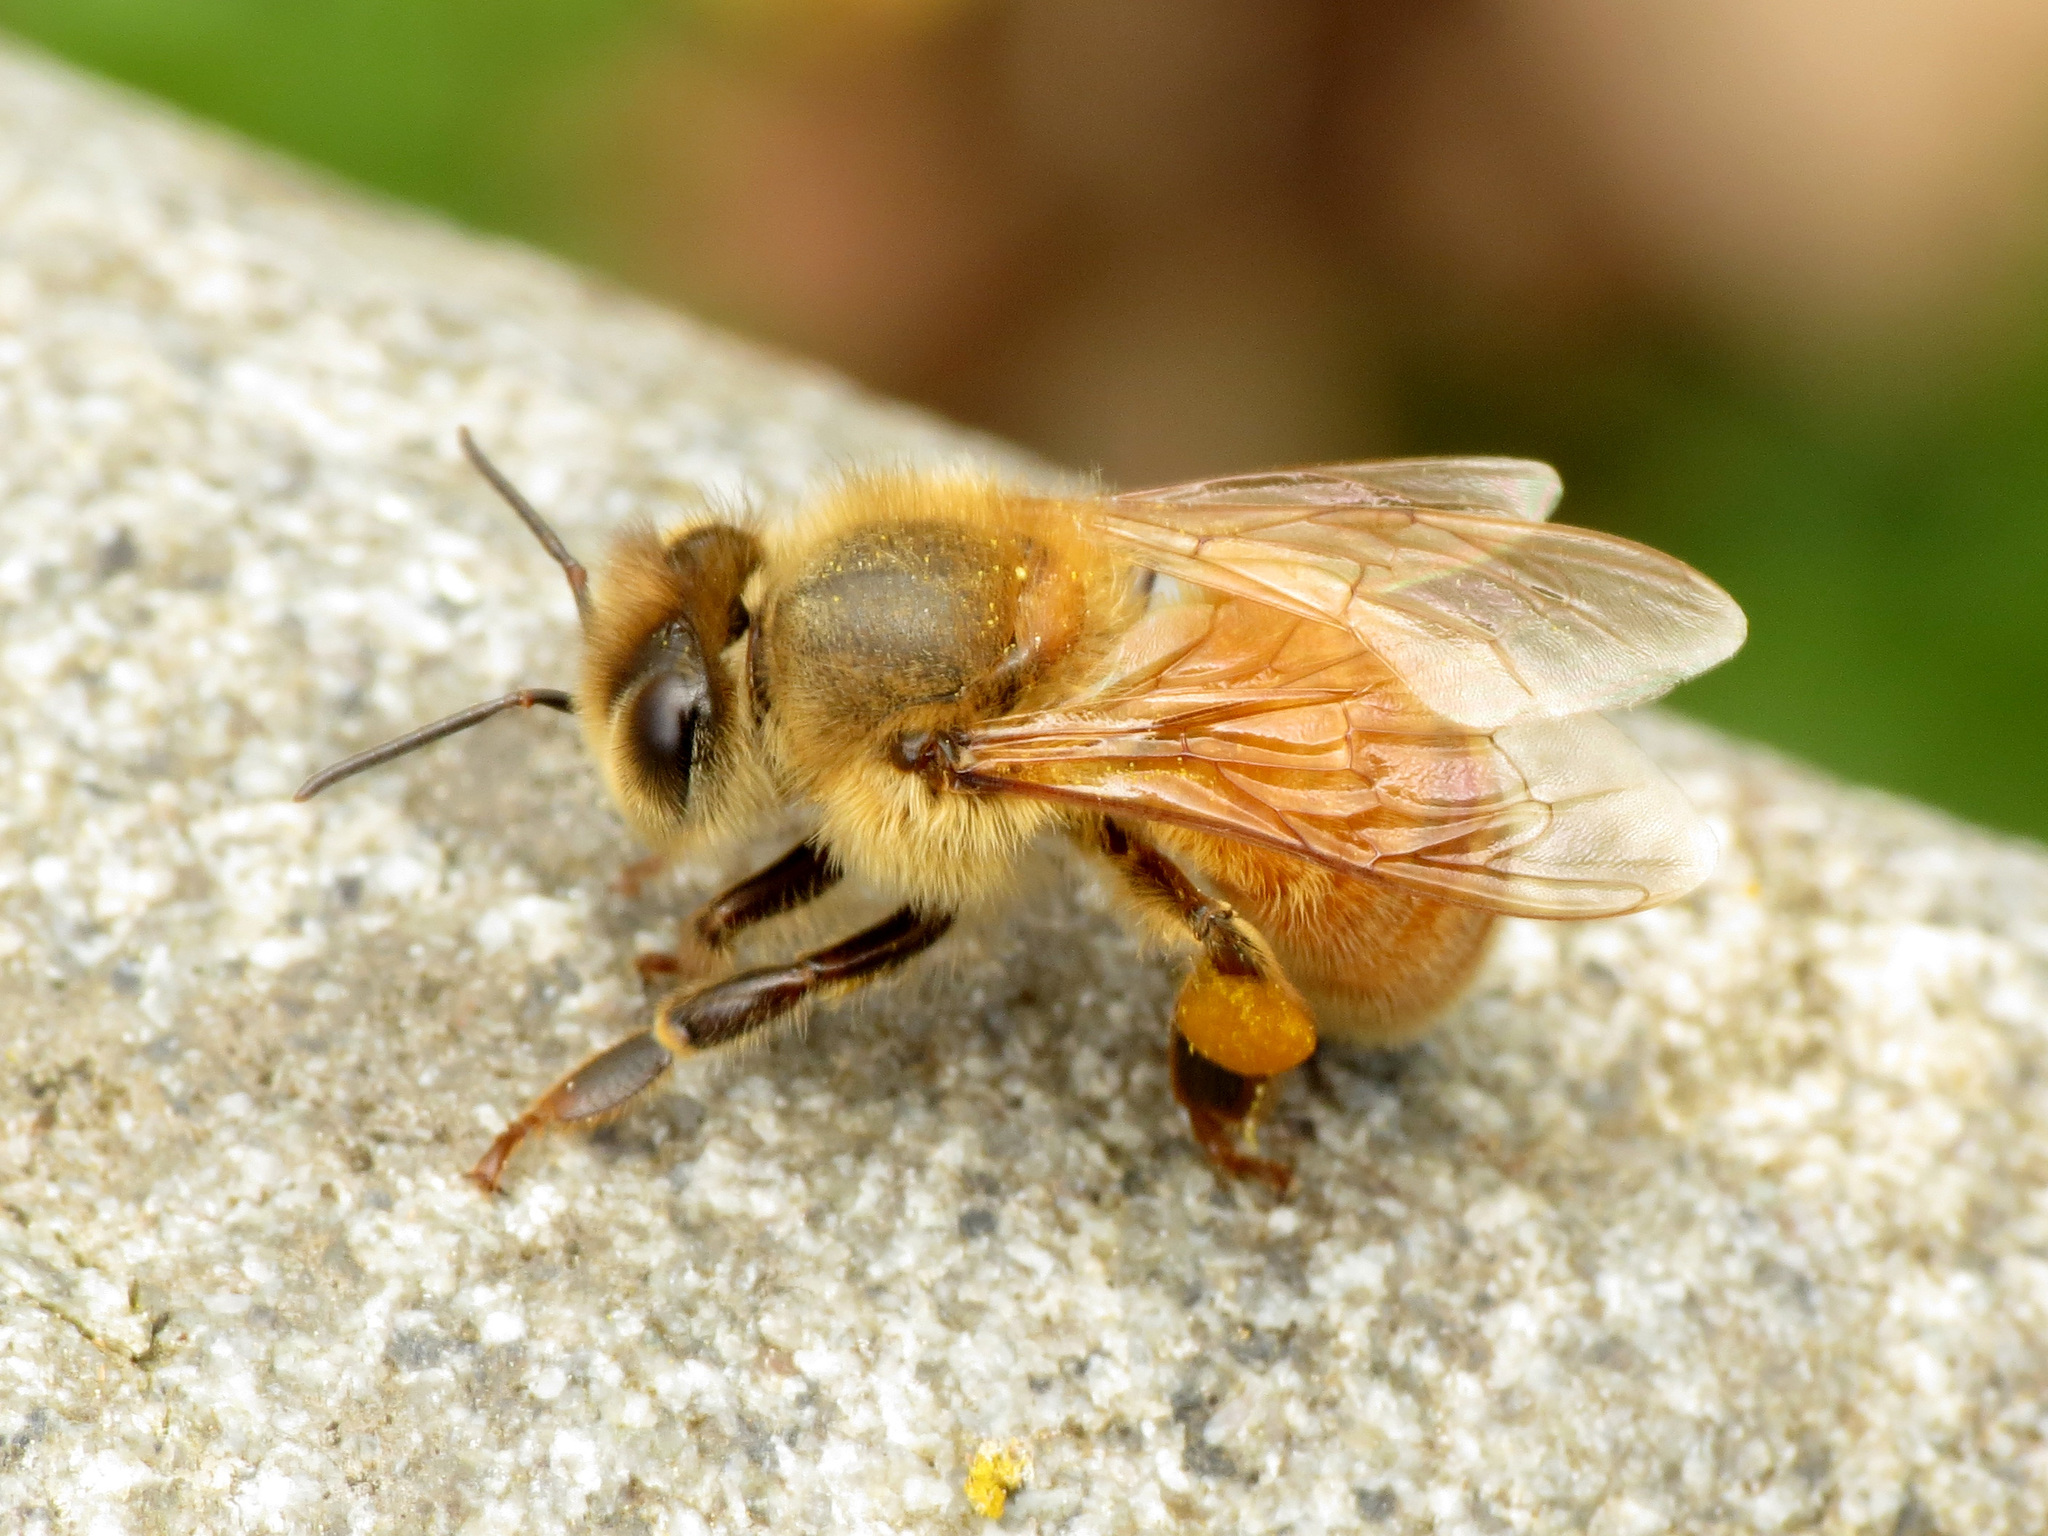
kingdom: Animalia
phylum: Arthropoda
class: Insecta
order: Hymenoptera
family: Apidae
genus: Apis
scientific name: Apis mellifera
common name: Honey bee
